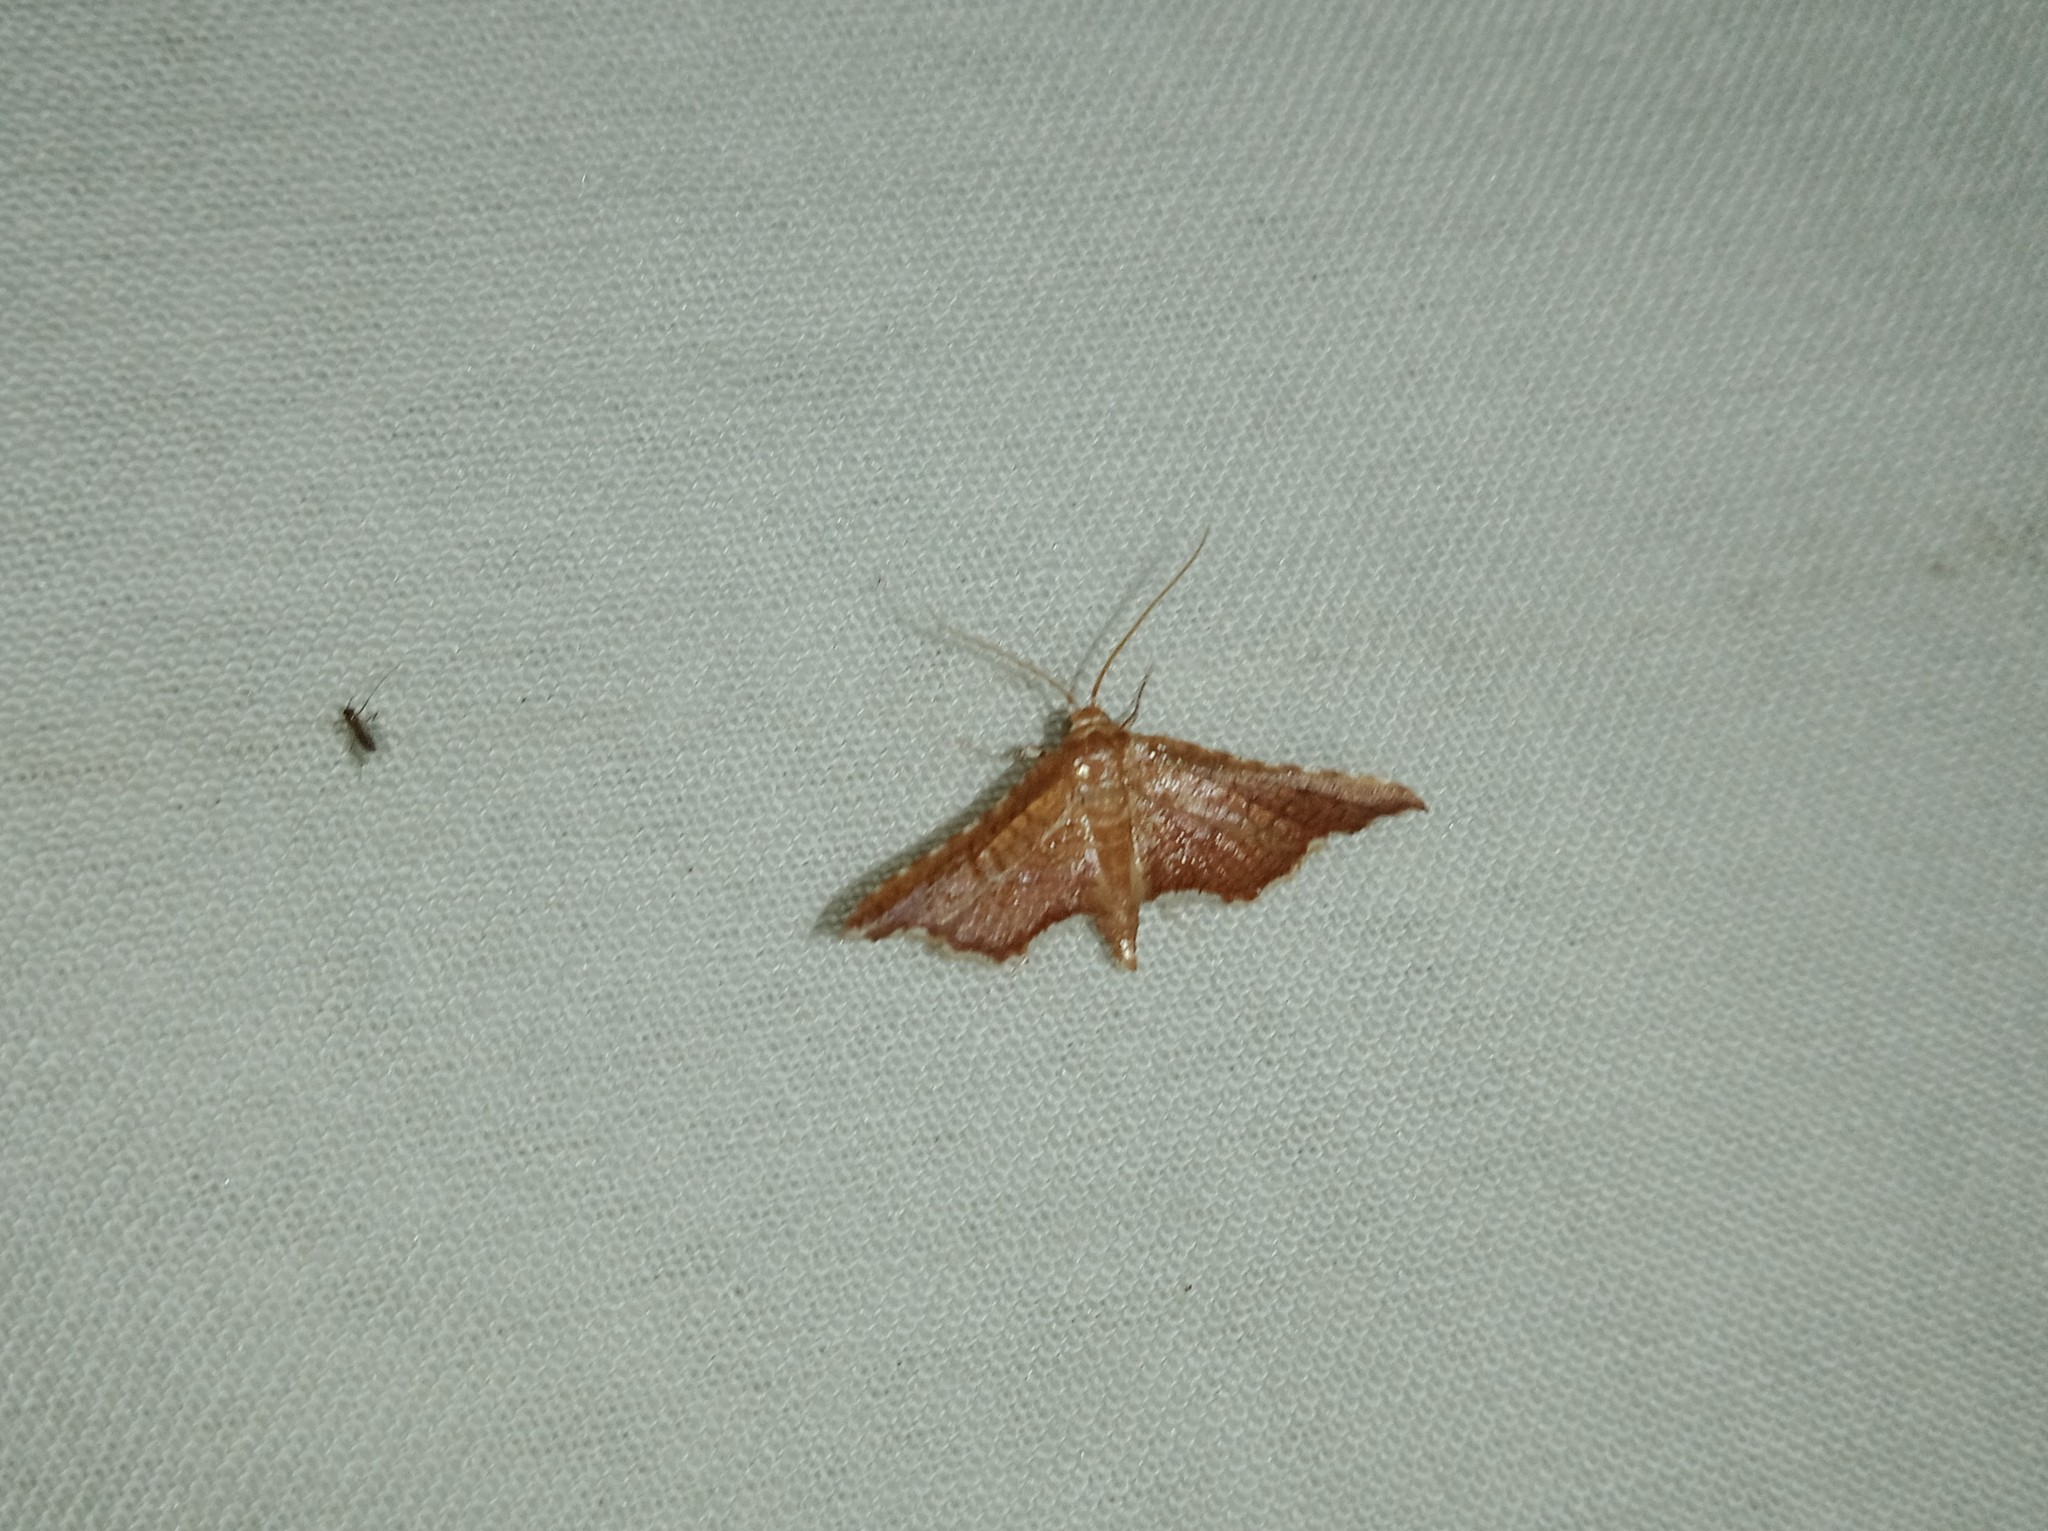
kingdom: Animalia
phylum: Arthropoda
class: Insecta
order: Lepidoptera
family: Thyrididae
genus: Hypolamprus
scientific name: Hypolamprus angulalis
